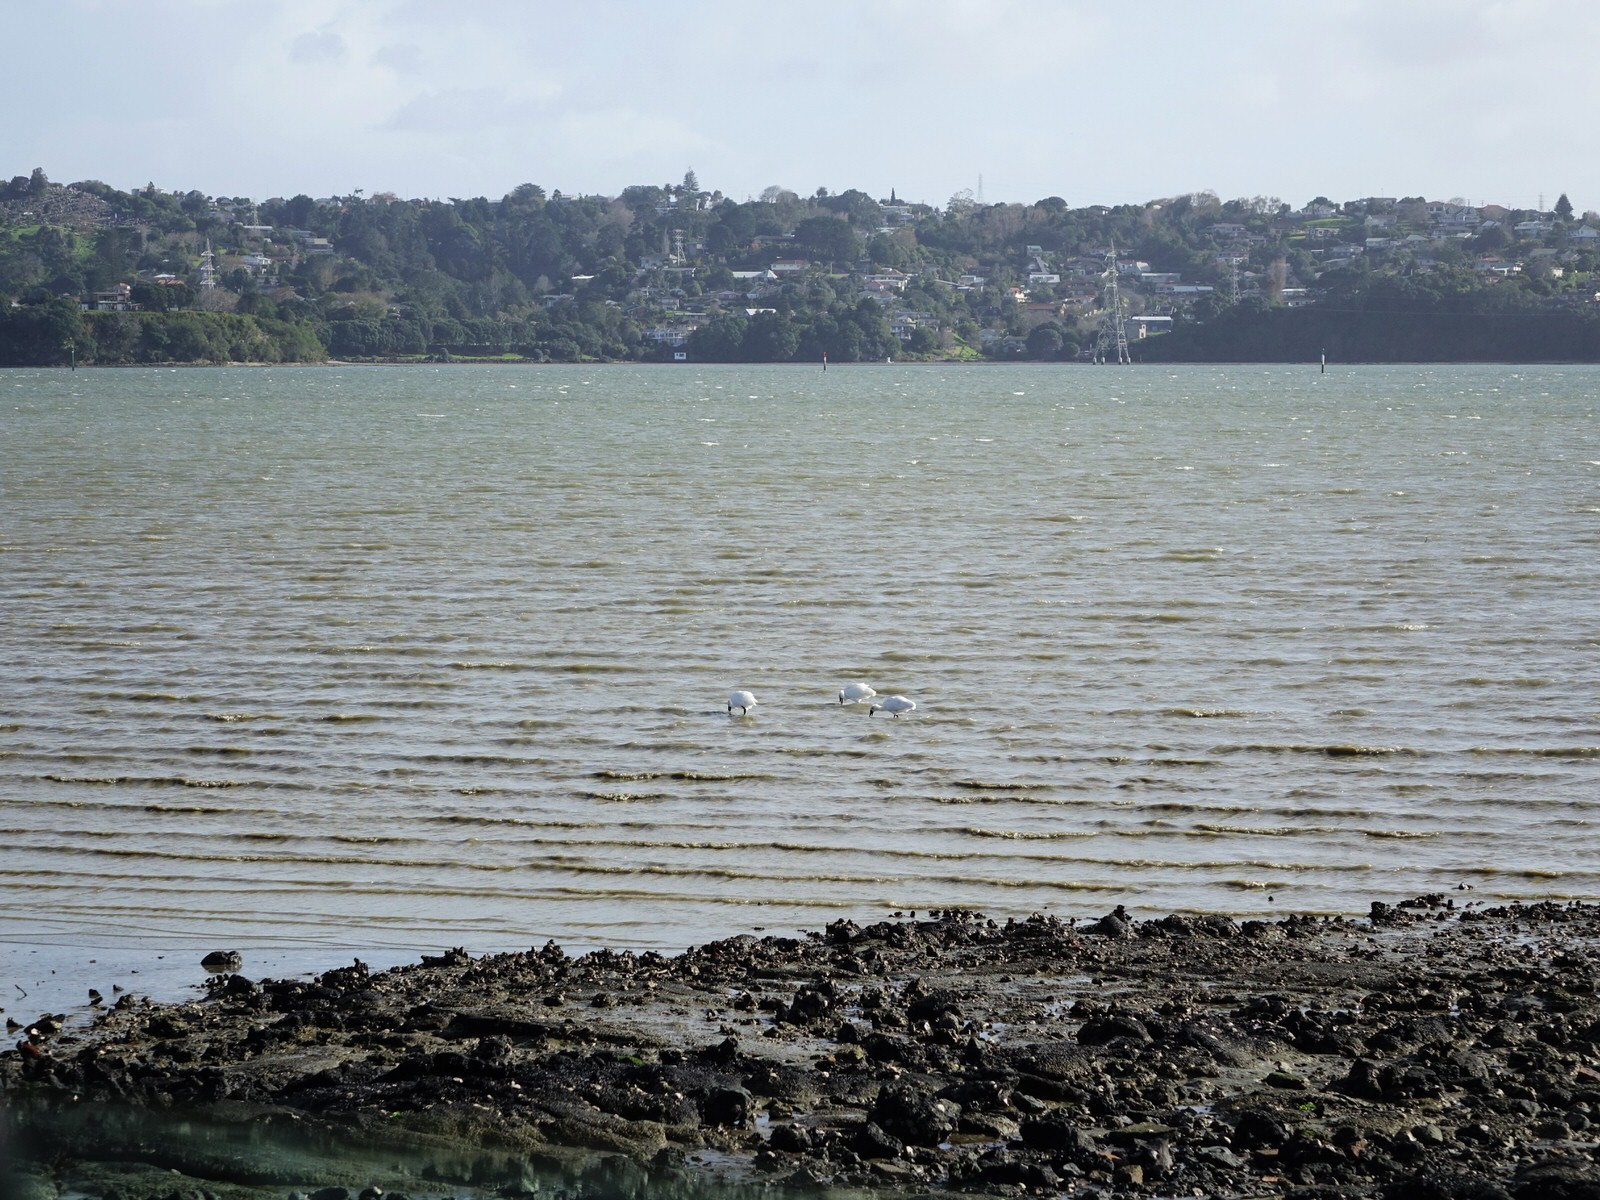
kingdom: Animalia
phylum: Chordata
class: Aves
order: Pelecaniformes
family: Threskiornithidae
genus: Platalea
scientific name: Platalea regia
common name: Royal spoonbill
